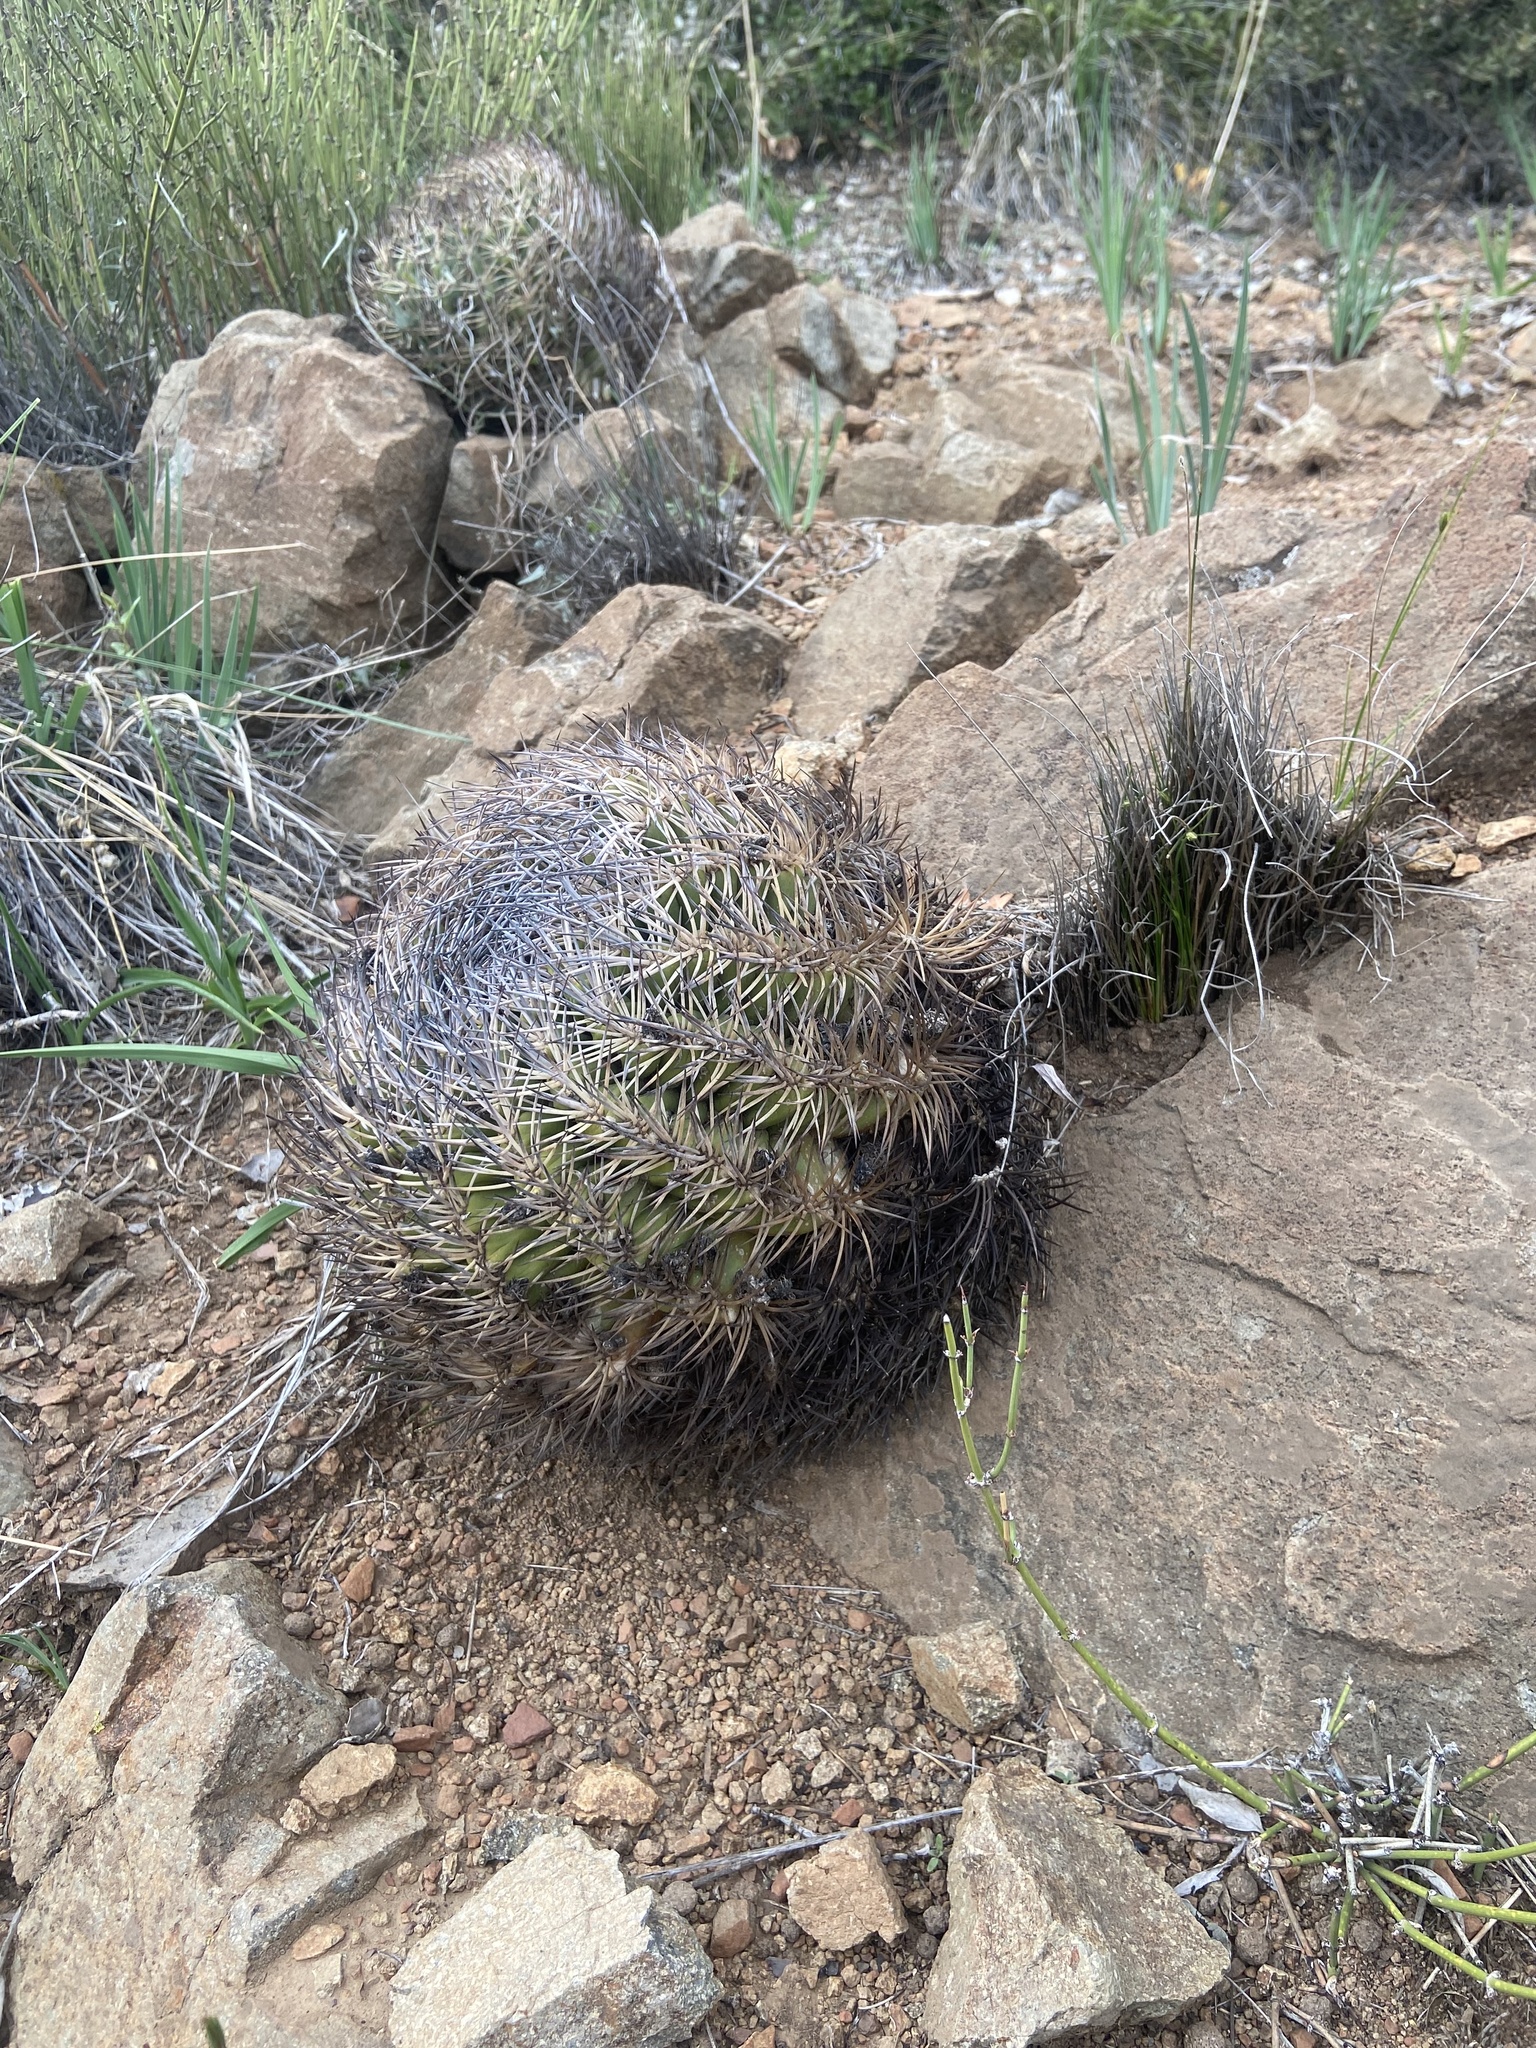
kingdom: Plantae
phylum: Tracheophyta
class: Magnoliopsida
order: Caryophyllales
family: Cactaceae
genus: Eriosyce
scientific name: Eriosyce curvispina
